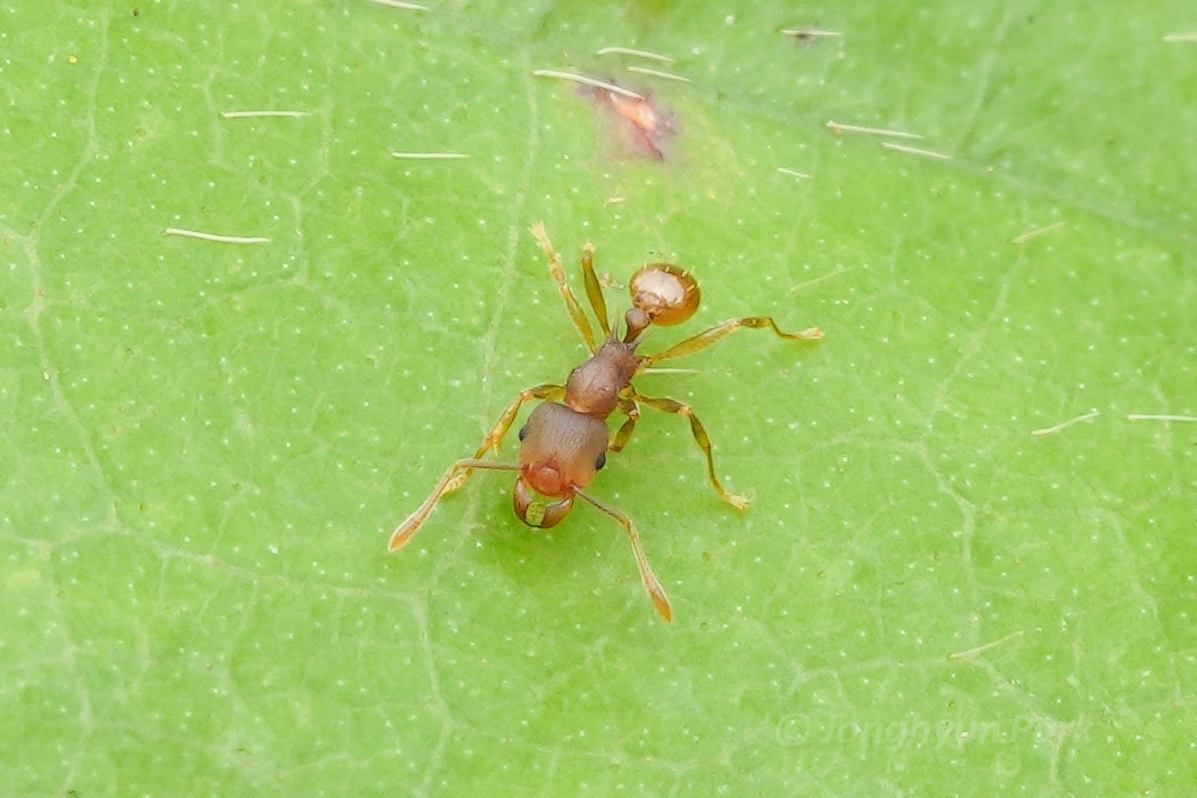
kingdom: Animalia
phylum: Arthropoda
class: Insecta
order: Hymenoptera
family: Formicidae
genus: Tetramorium
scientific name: Tetramorium wroughtonii
